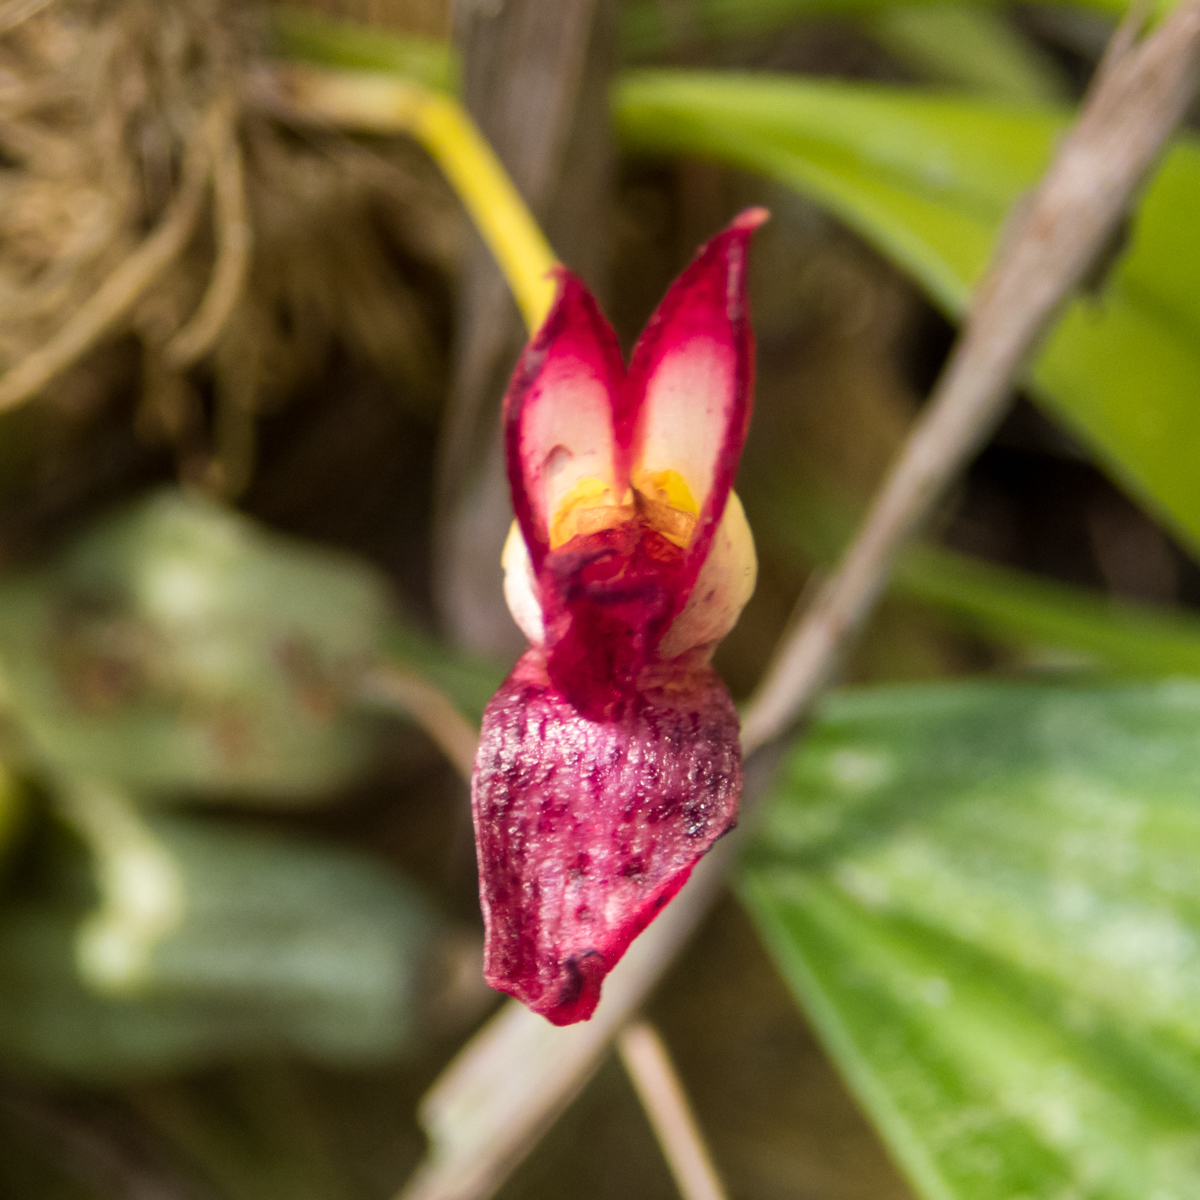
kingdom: Plantae
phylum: Tracheophyta
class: Liliopsida
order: Asparagales
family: Orchidaceae
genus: Bulbophyllum
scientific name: Bulbophyllum macranthum
